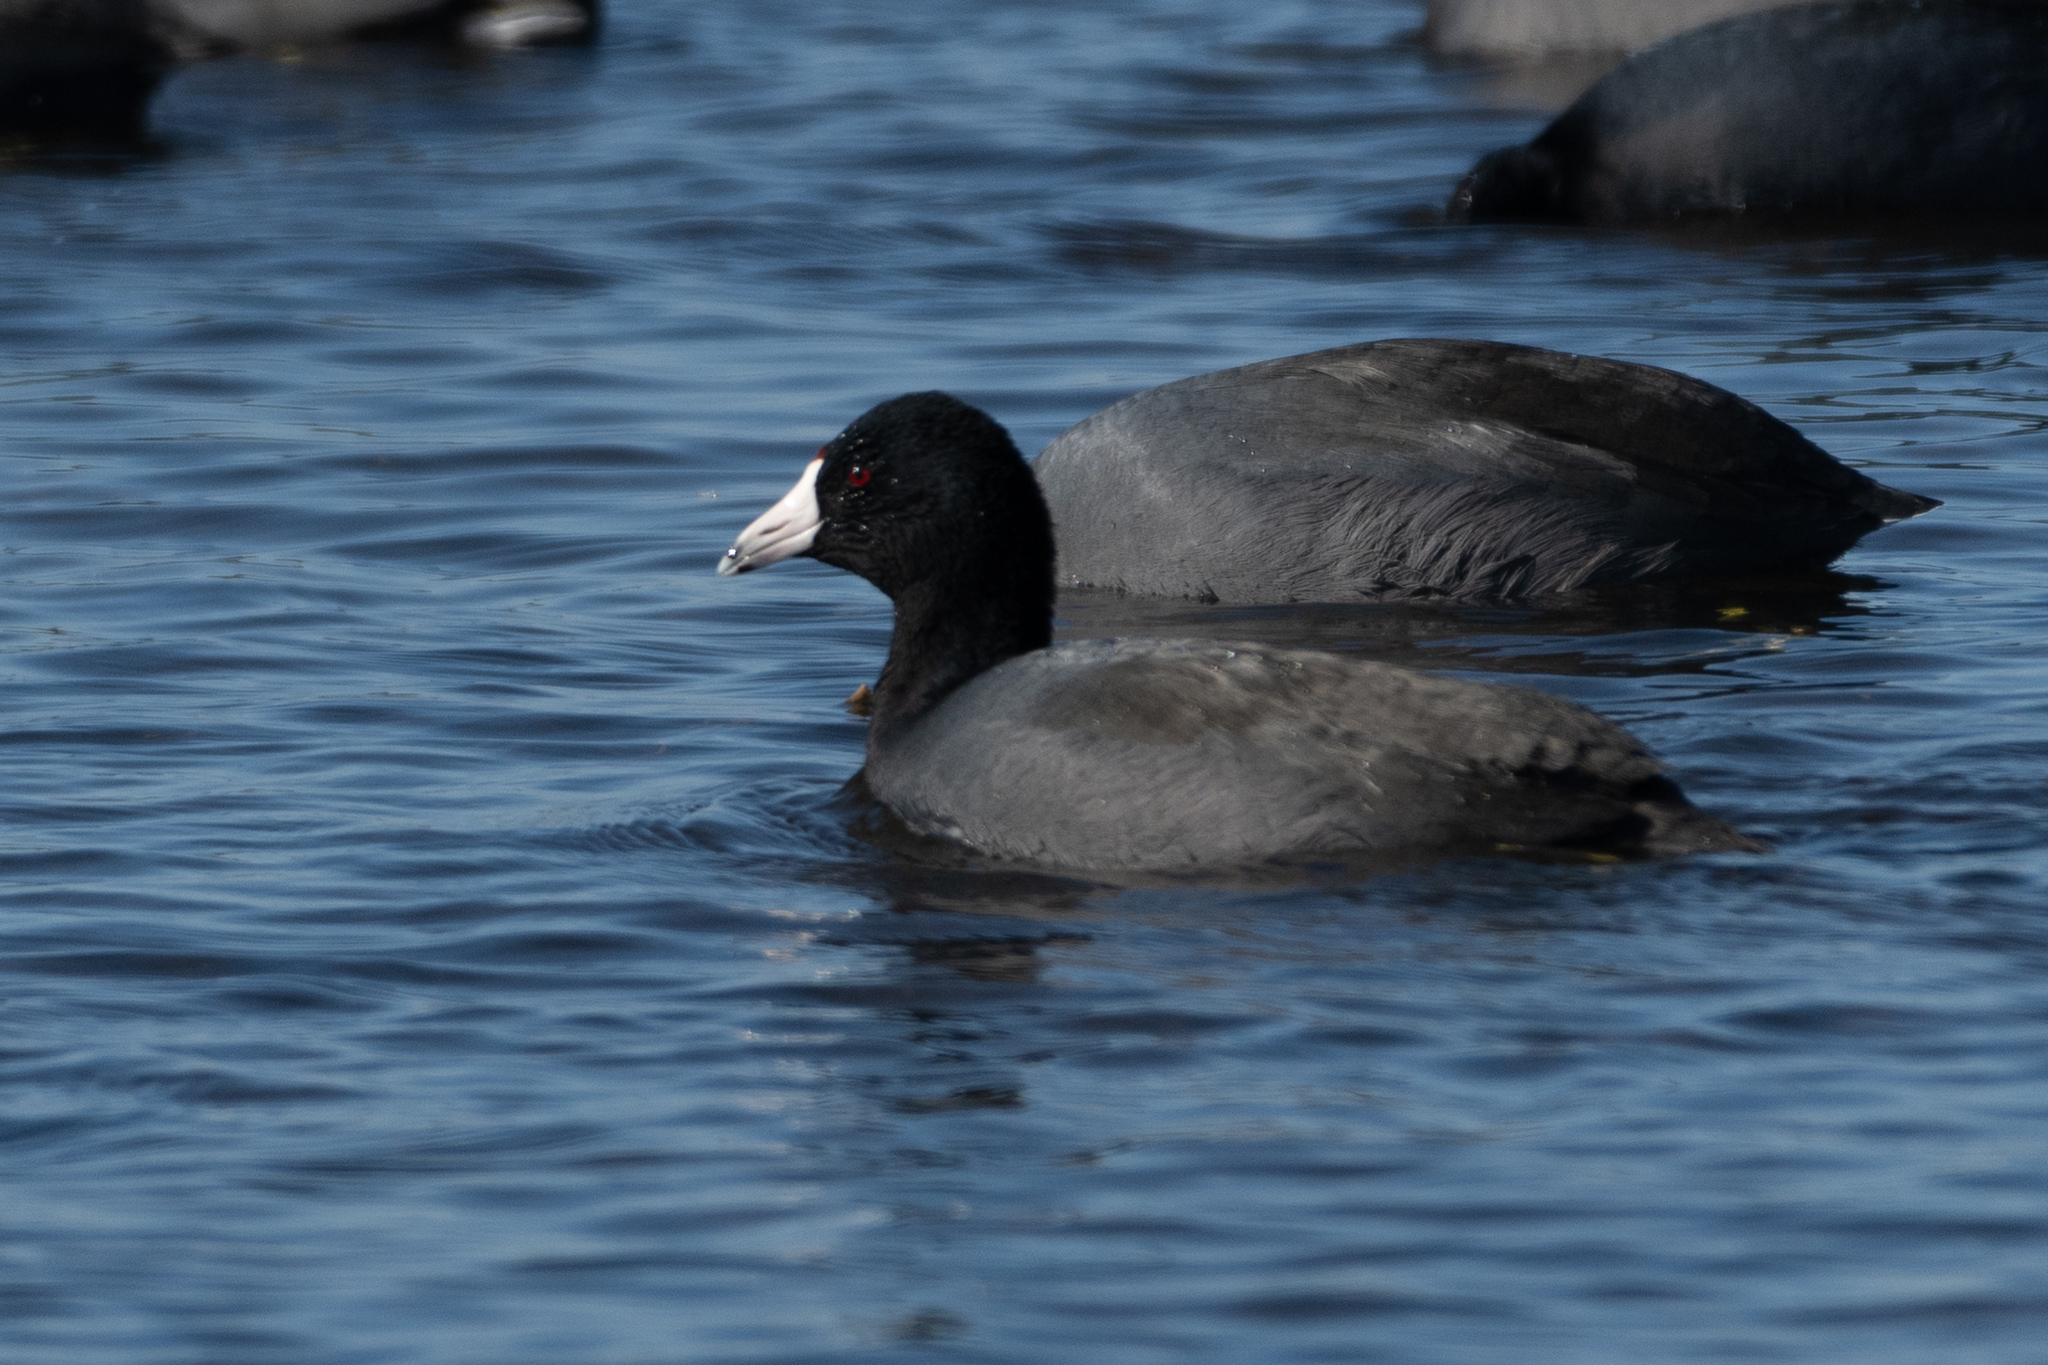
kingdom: Animalia
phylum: Chordata
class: Aves
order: Gruiformes
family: Rallidae
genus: Fulica
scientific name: Fulica americana
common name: American coot
